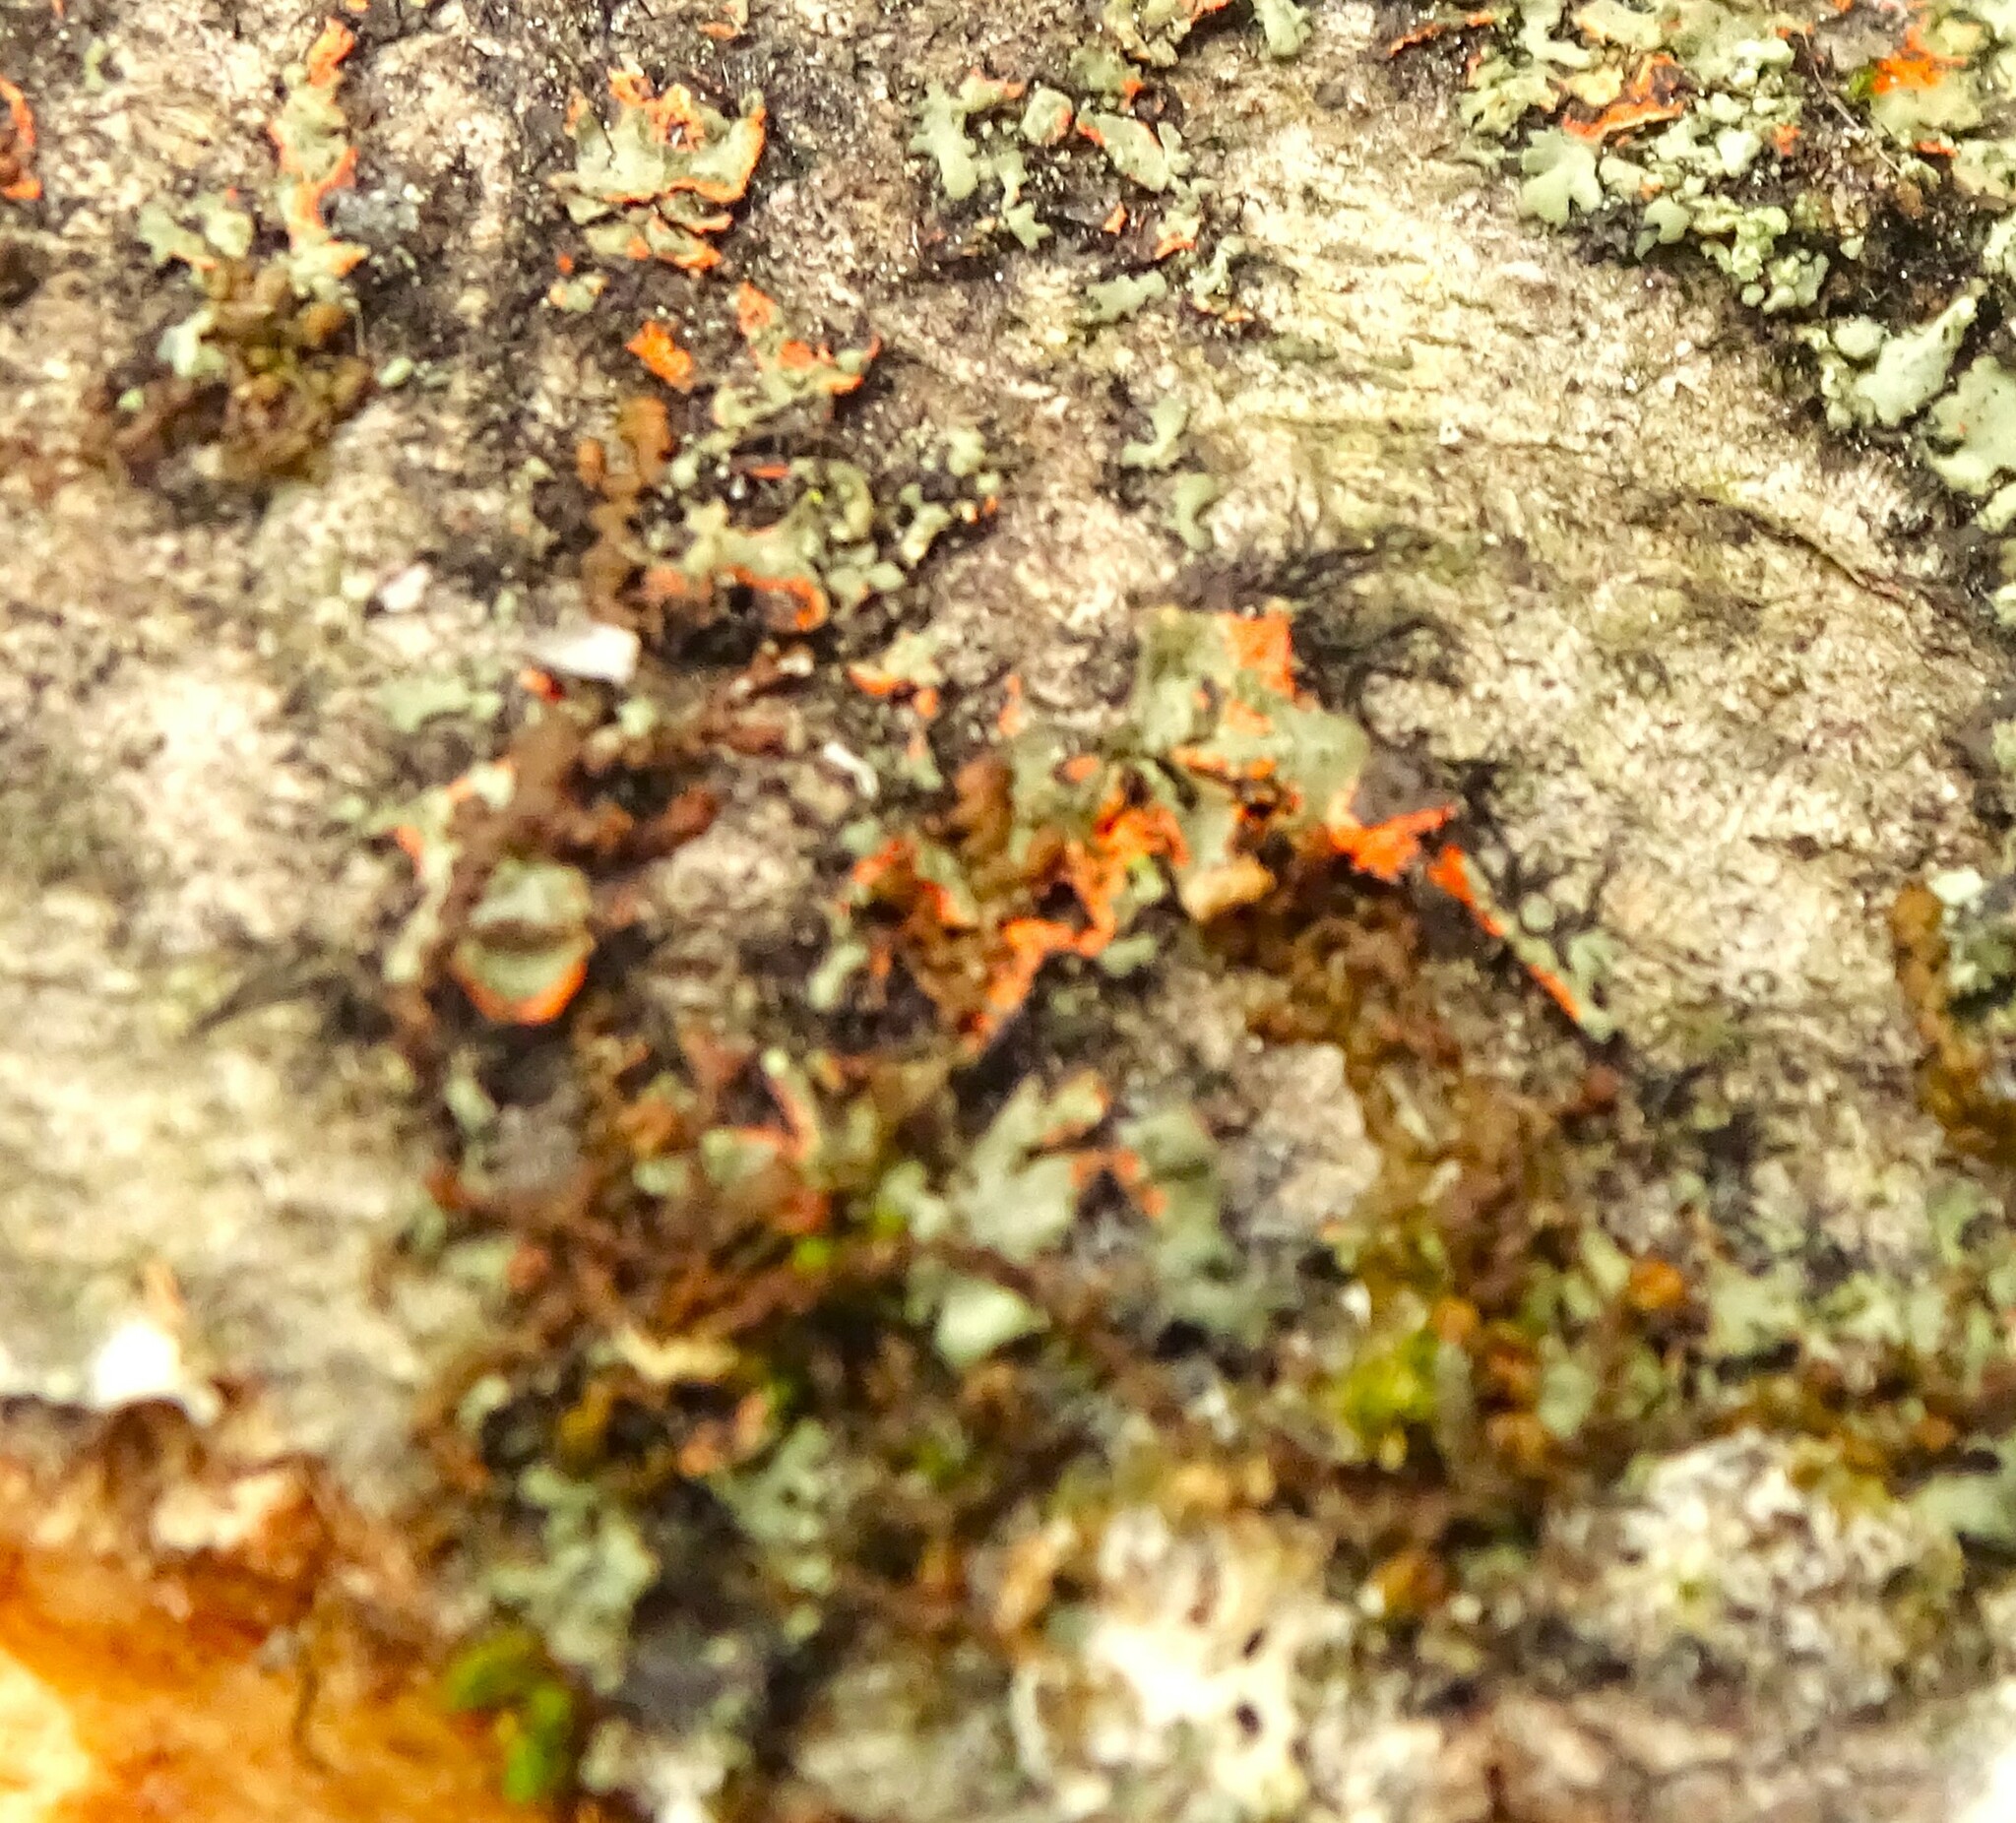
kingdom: Fungi
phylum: Ascomycota
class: Lecanoromycetes
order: Caliciales
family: Physciaceae
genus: Phaeophyscia
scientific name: Phaeophyscia rubropulchra
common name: Orange-cored shadow lichen
